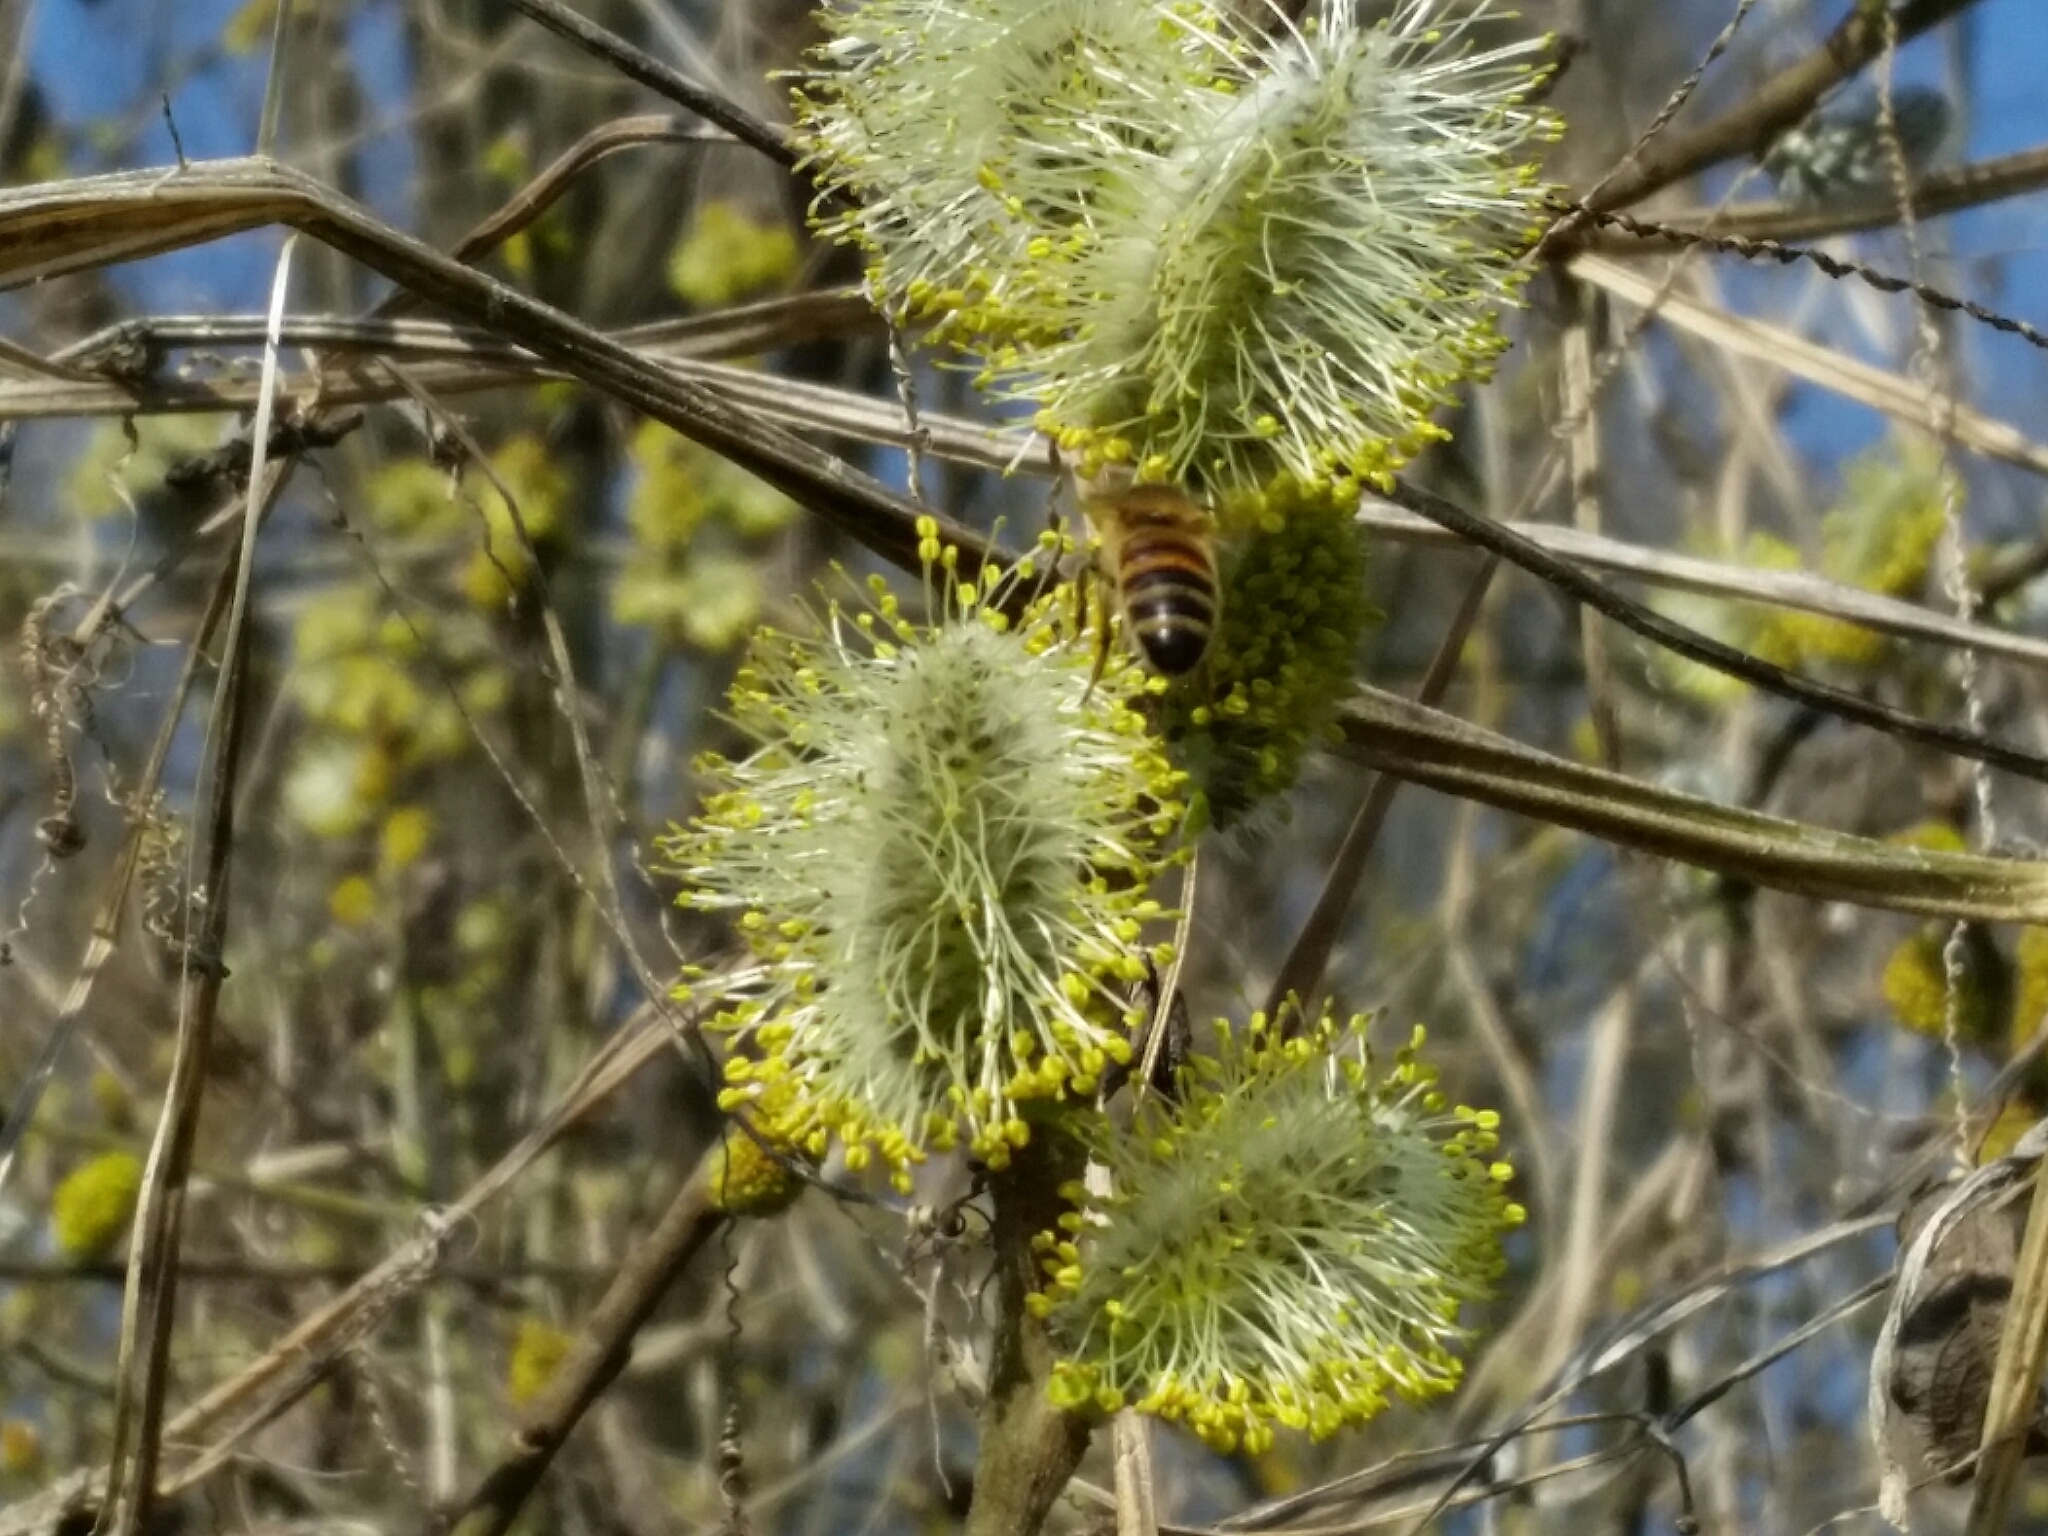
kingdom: Plantae
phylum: Tracheophyta
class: Magnoliopsida
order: Malpighiales
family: Salicaceae
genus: Salix
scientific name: Salix caprea
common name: Goat willow
